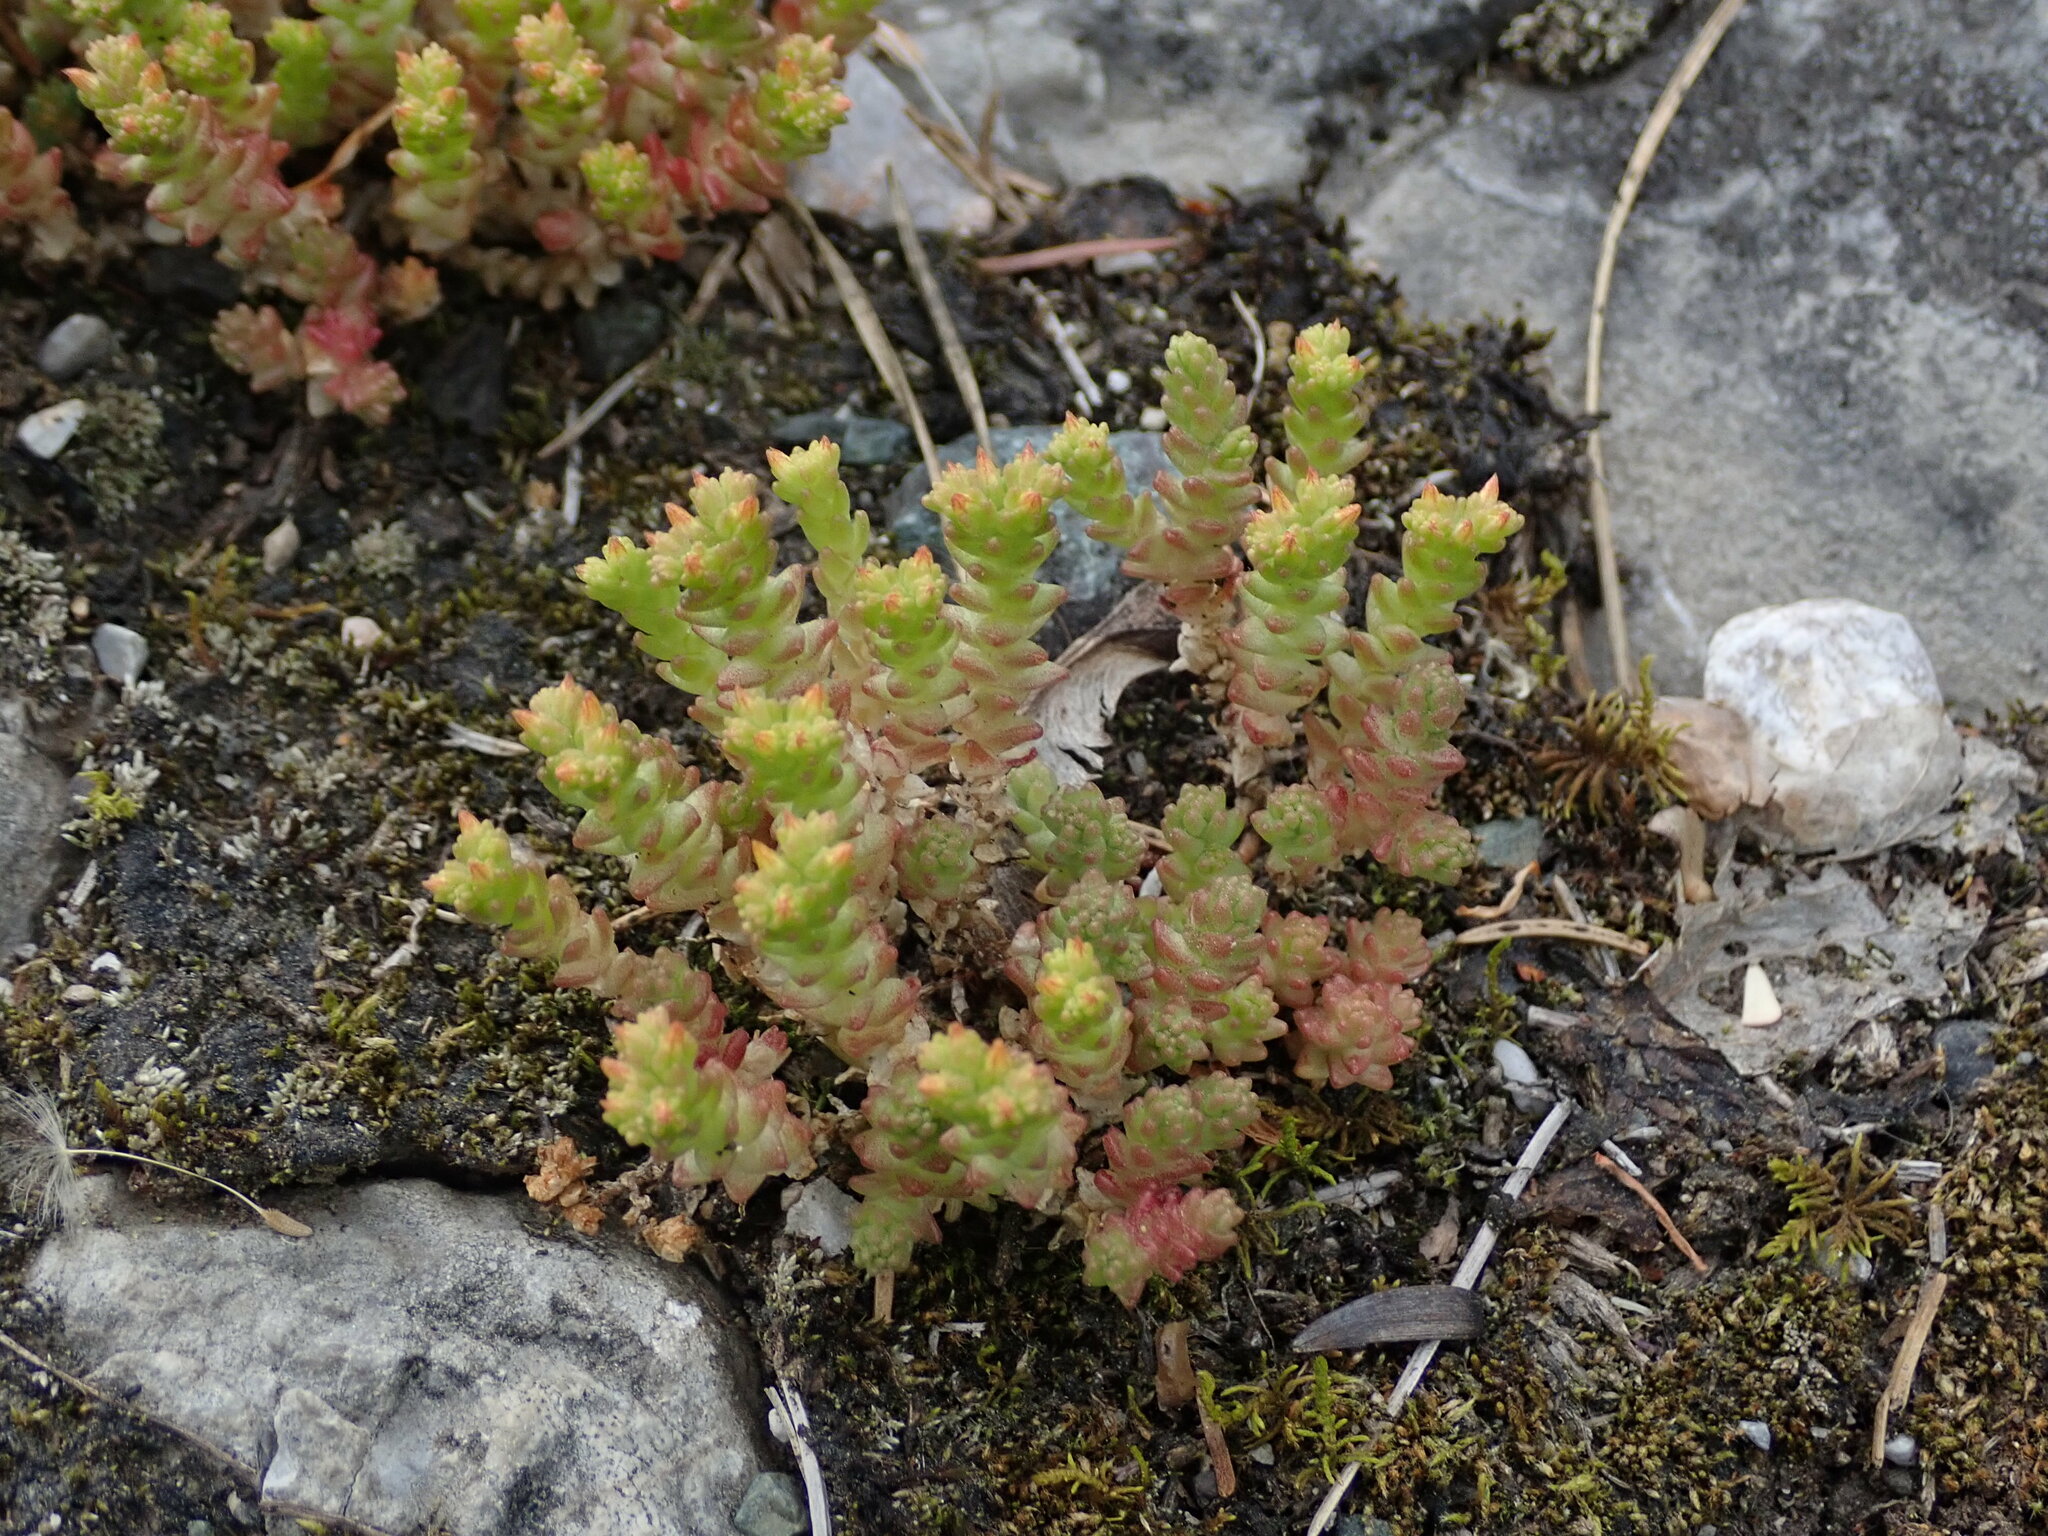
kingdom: Plantae
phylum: Tracheophyta
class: Magnoliopsida
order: Saxifragales
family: Crassulaceae
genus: Sedum
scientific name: Sedum acre
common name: Biting stonecrop
